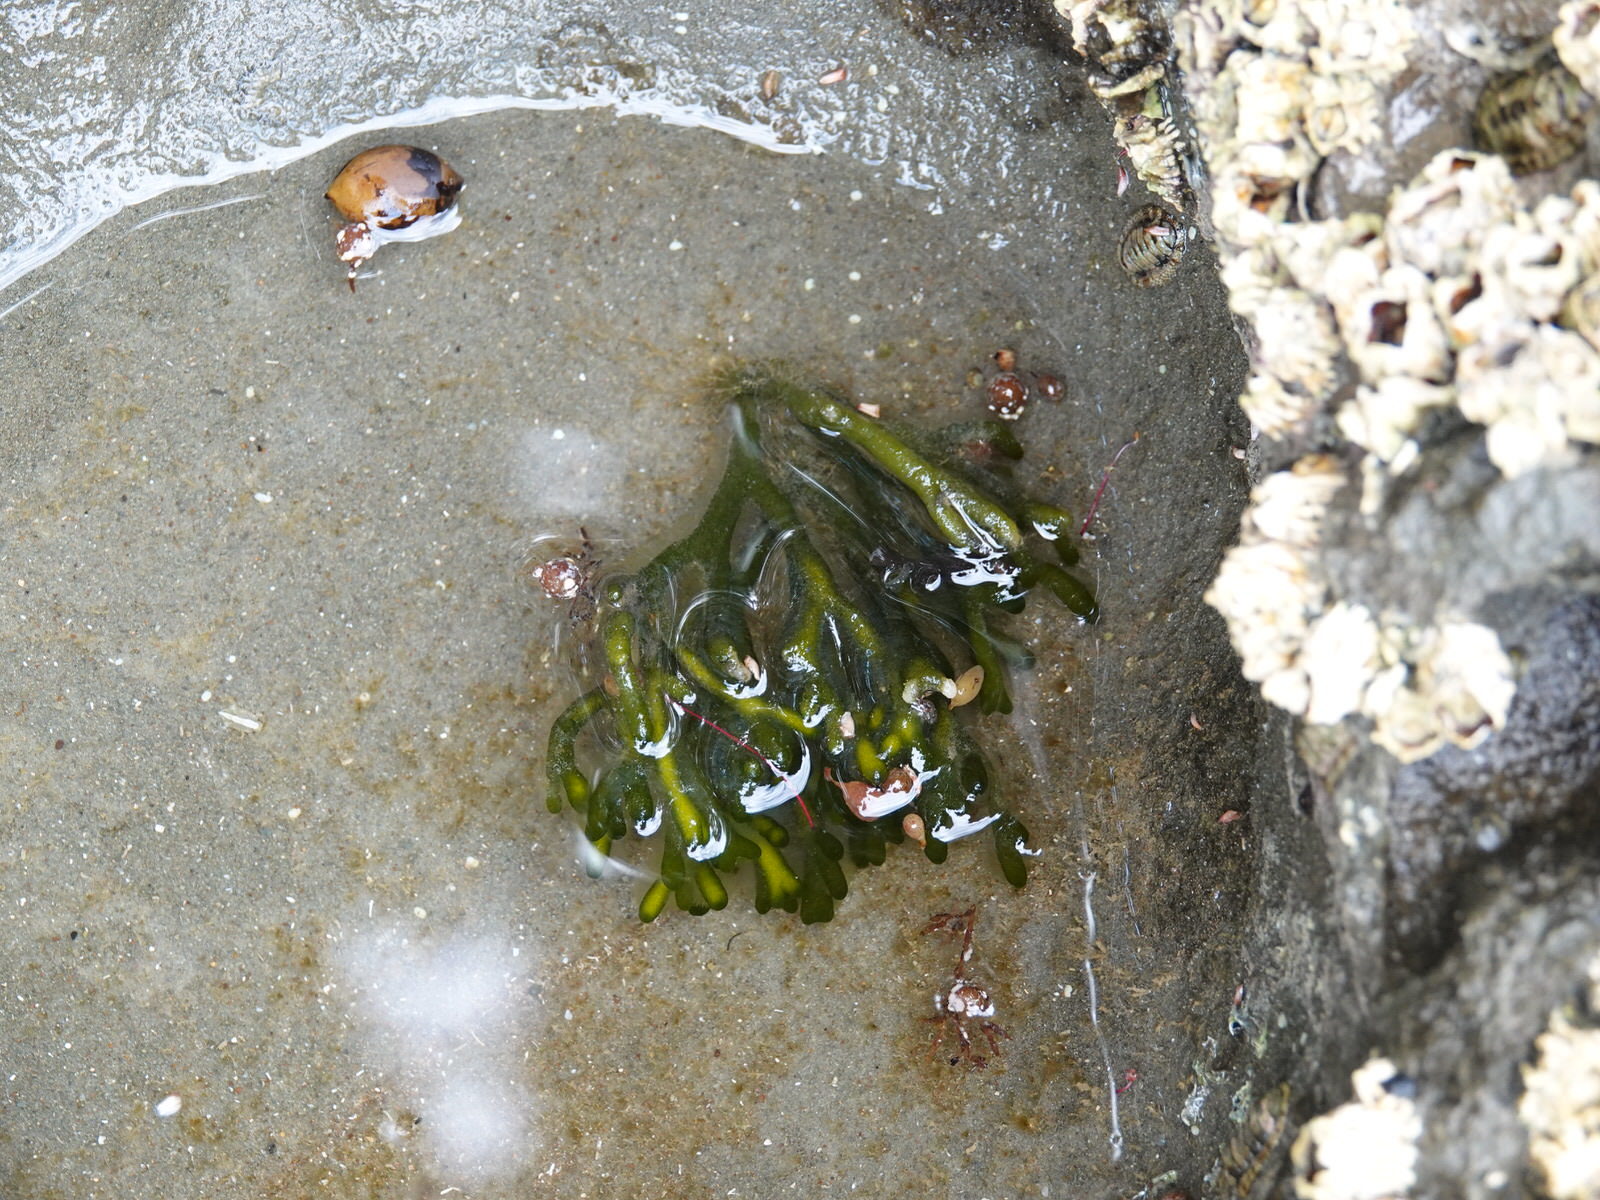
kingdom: Plantae
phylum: Chlorophyta
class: Ulvophyceae
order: Bryopsidales
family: Codiaceae
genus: Codium
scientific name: Codium fragile
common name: Dead man's fingers
